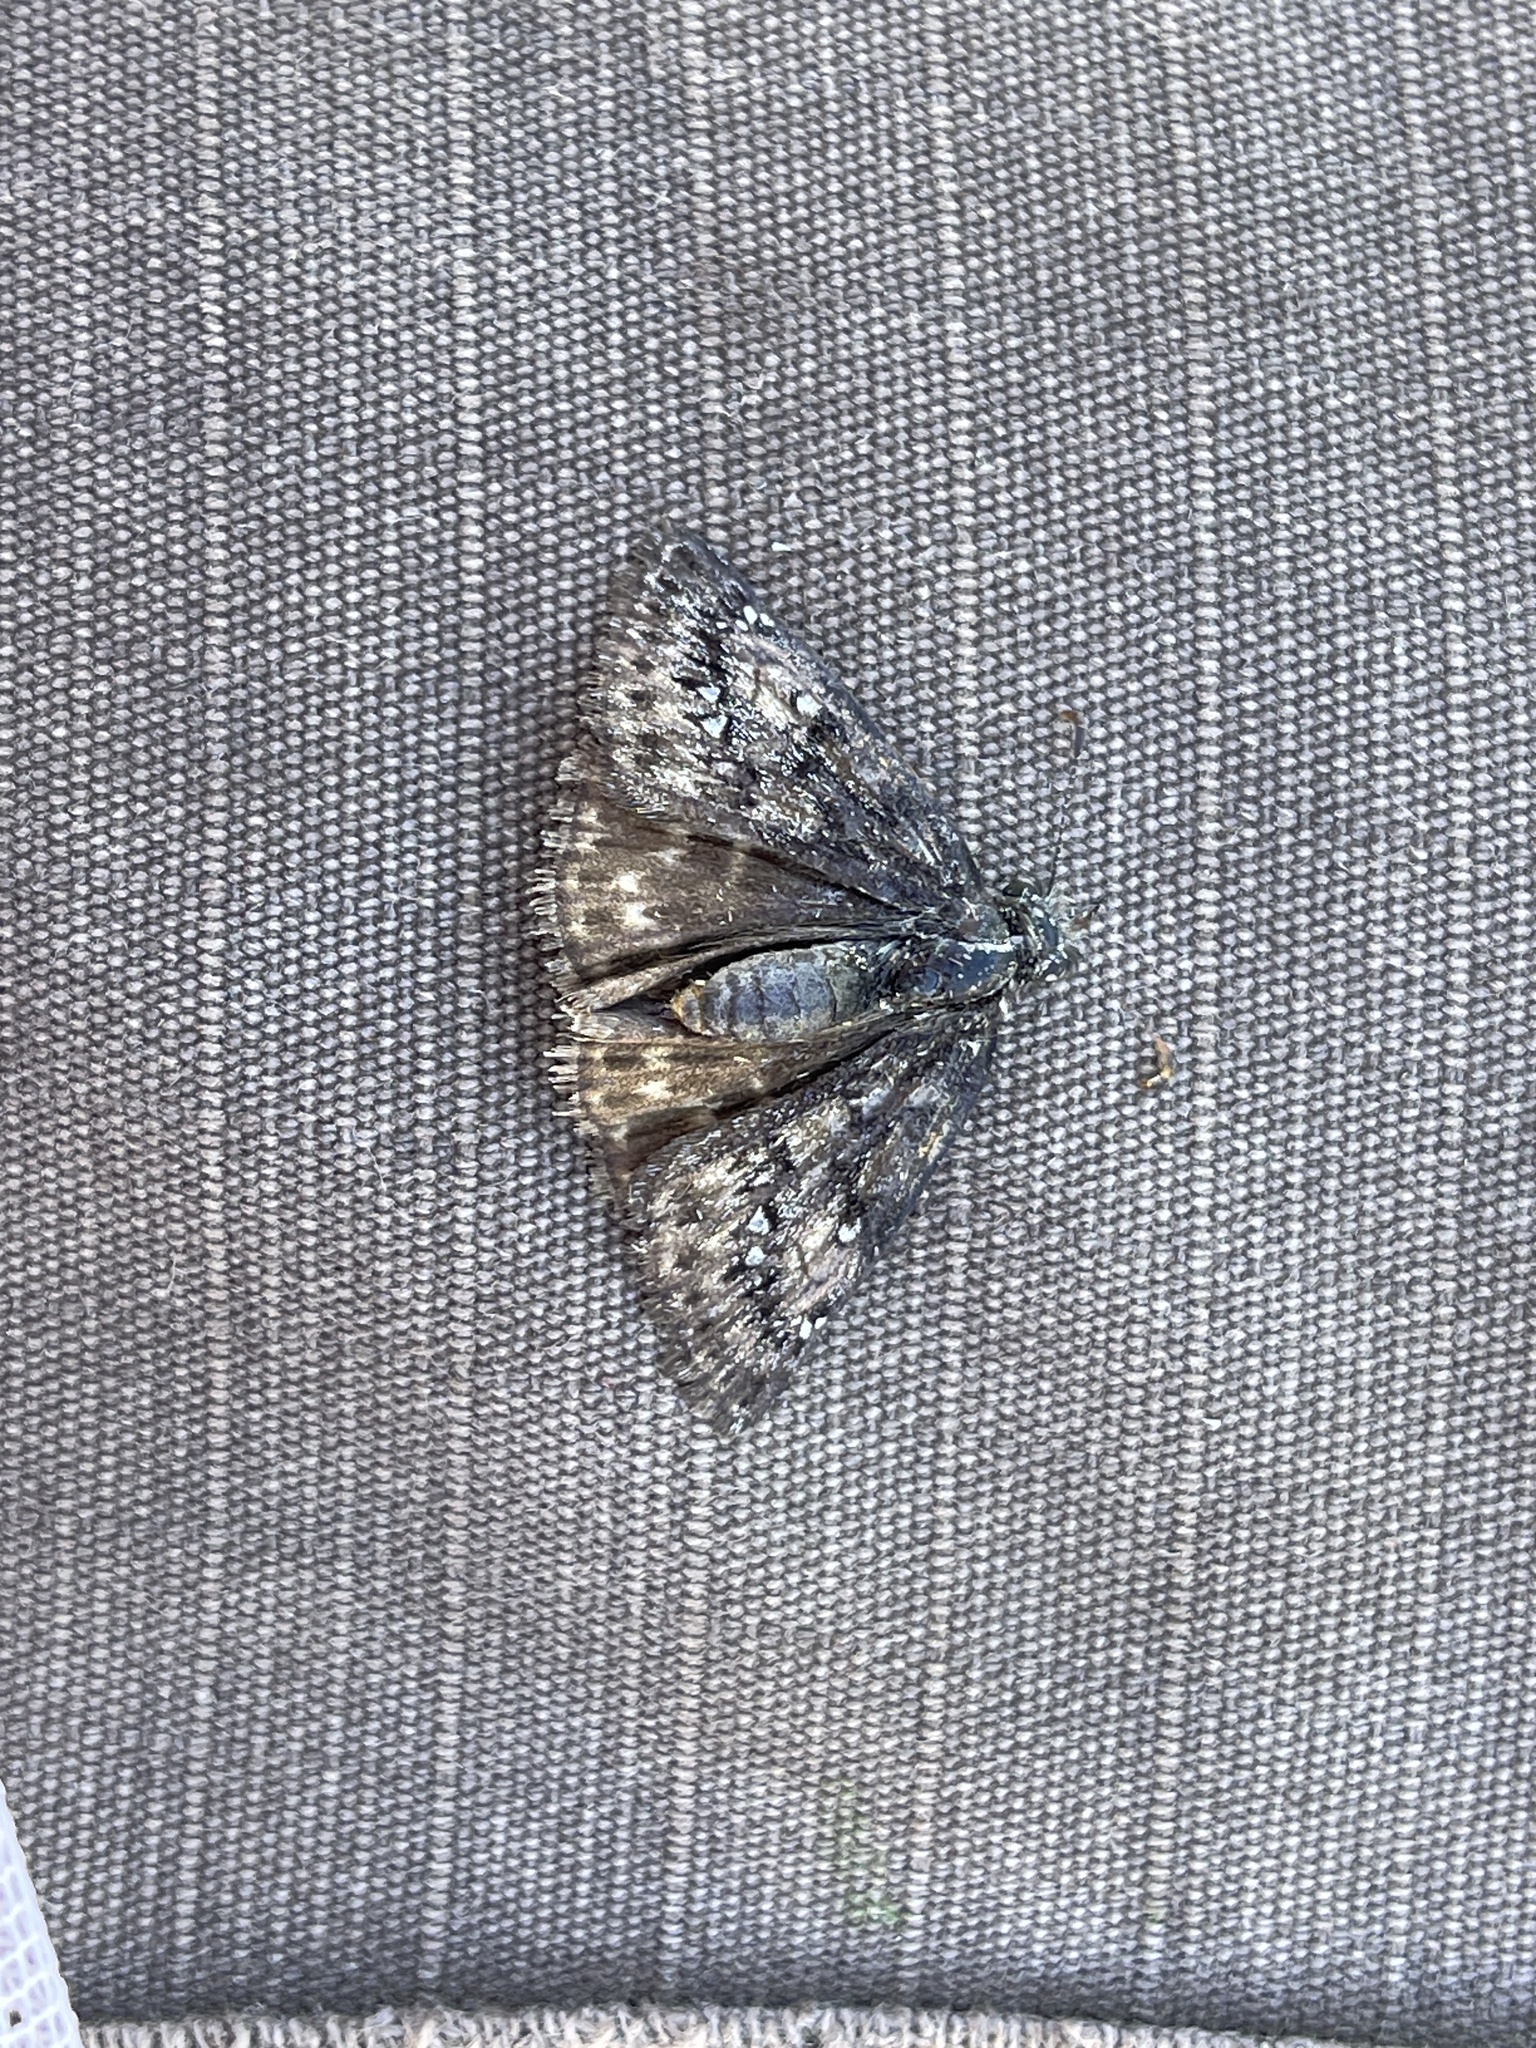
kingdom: Animalia
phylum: Arthropoda
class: Insecta
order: Lepidoptera
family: Hesperiidae
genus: Erynnis
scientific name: Erynnis telemachus
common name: Rocky mountain duskywing
